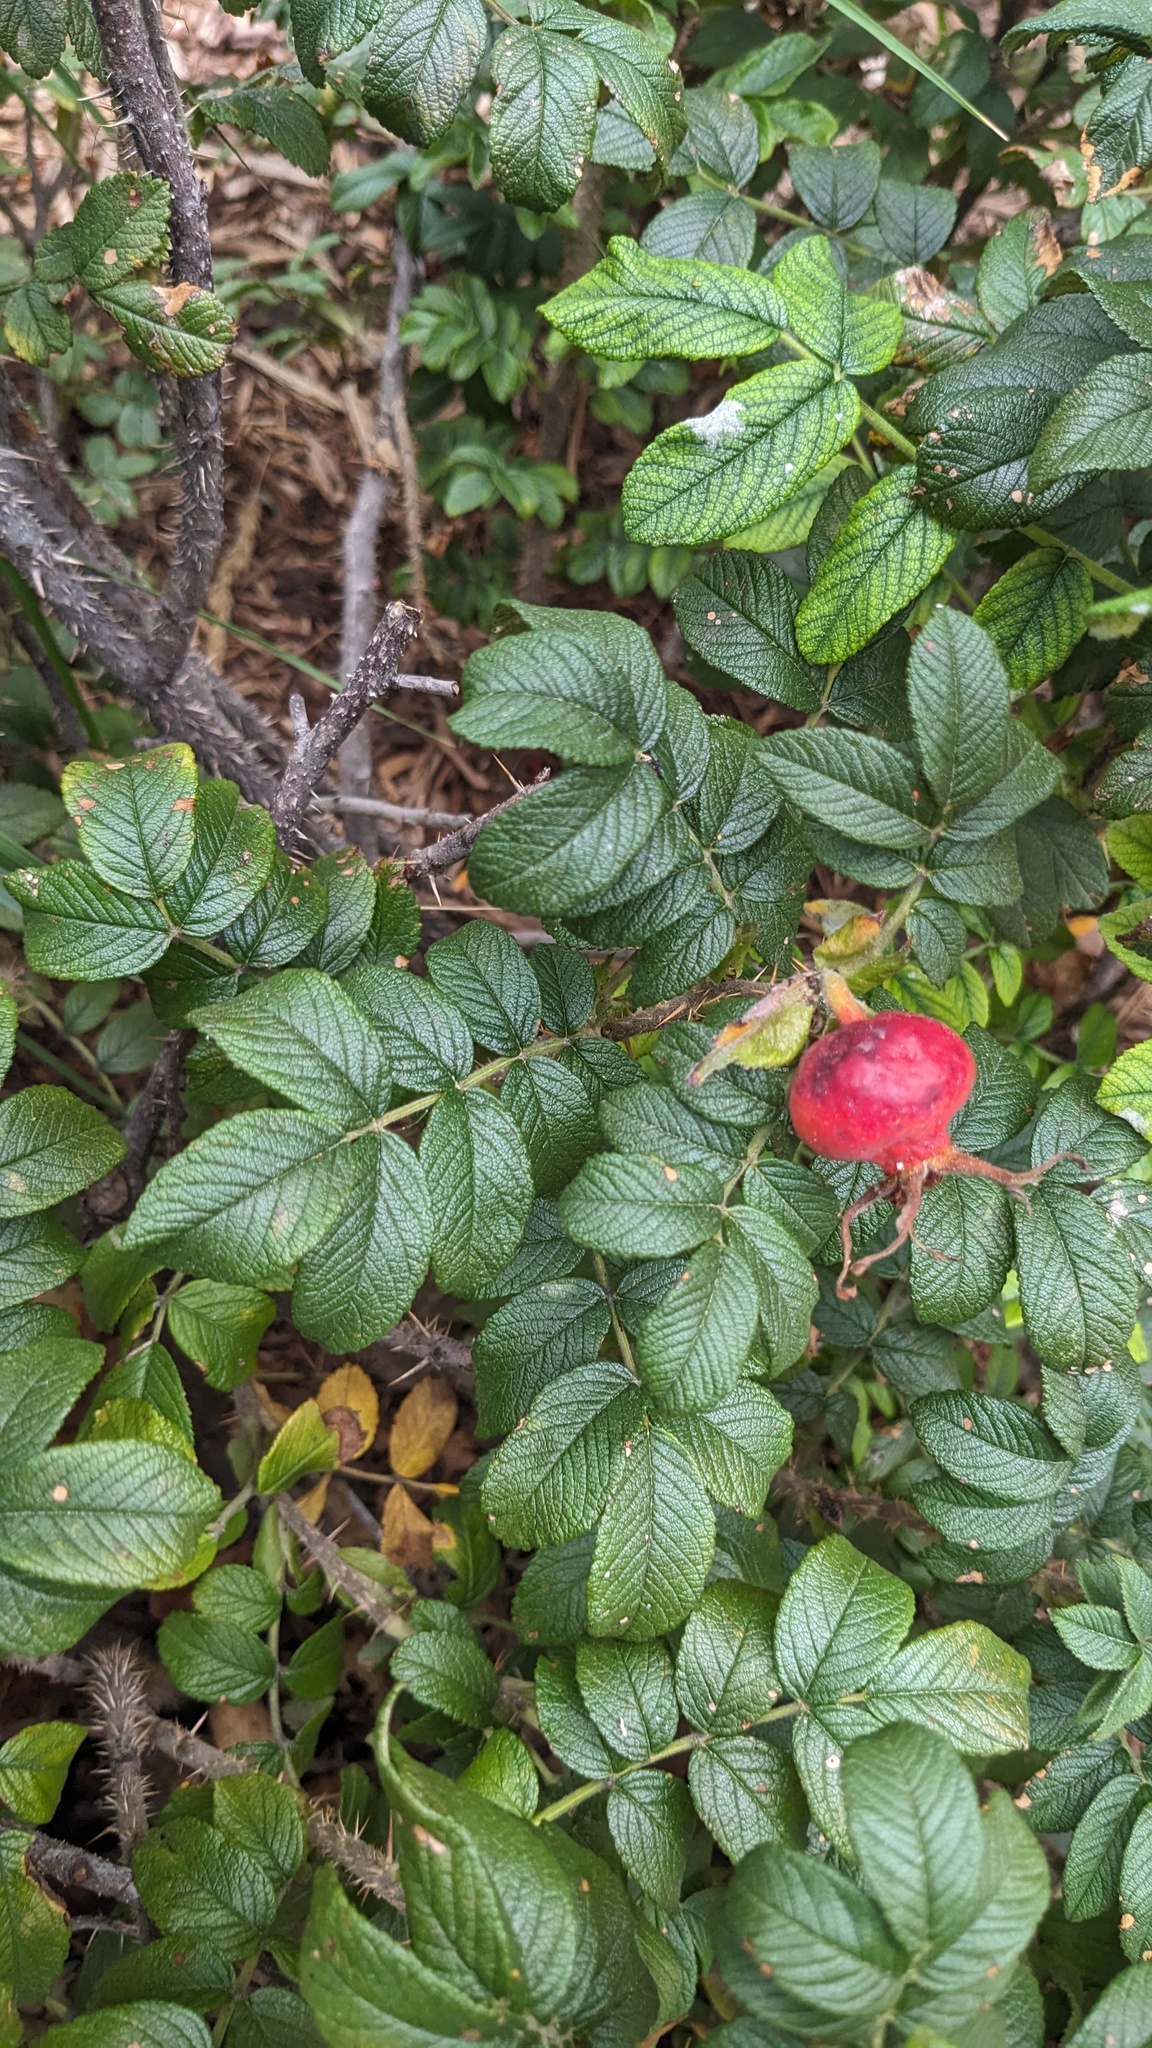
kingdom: Fungi
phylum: Ascomycota
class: Leotiomycetes
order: Helotiales
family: Erysiphaceae
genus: Podosphaera
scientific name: Podosphaera pannosa
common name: Rose mildew
